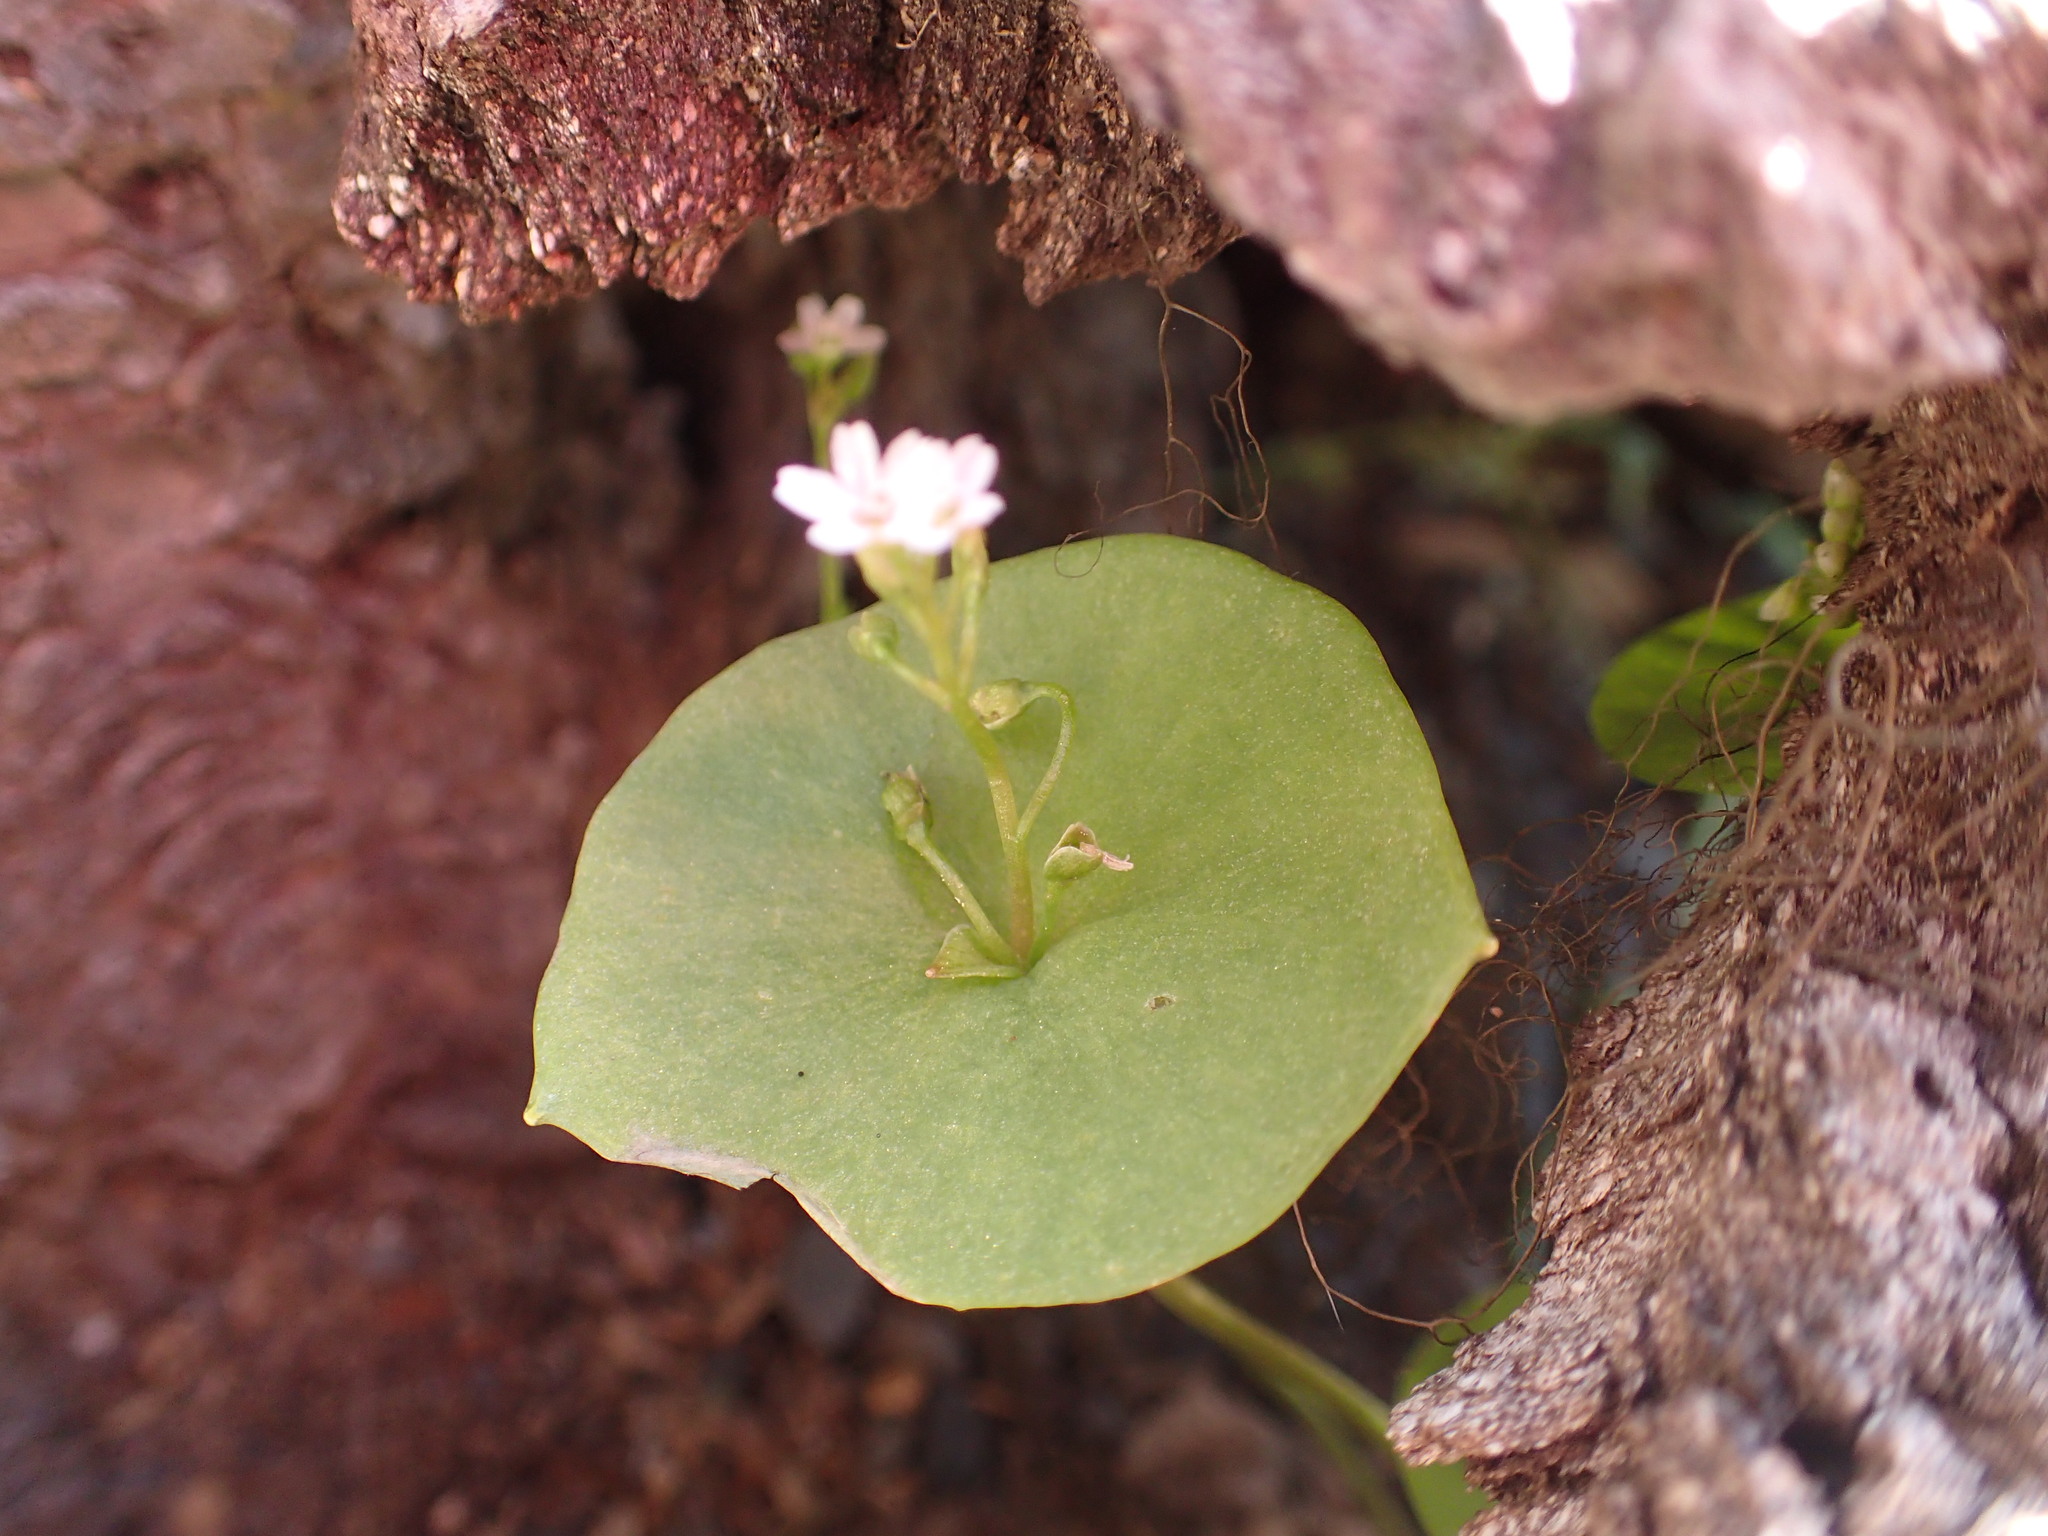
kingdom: Plantae
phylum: Tracheophyta
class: Magnoliopsida
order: Caryophyllales
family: Montiaceae
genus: Claytonia
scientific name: Claytonia perfoliata
